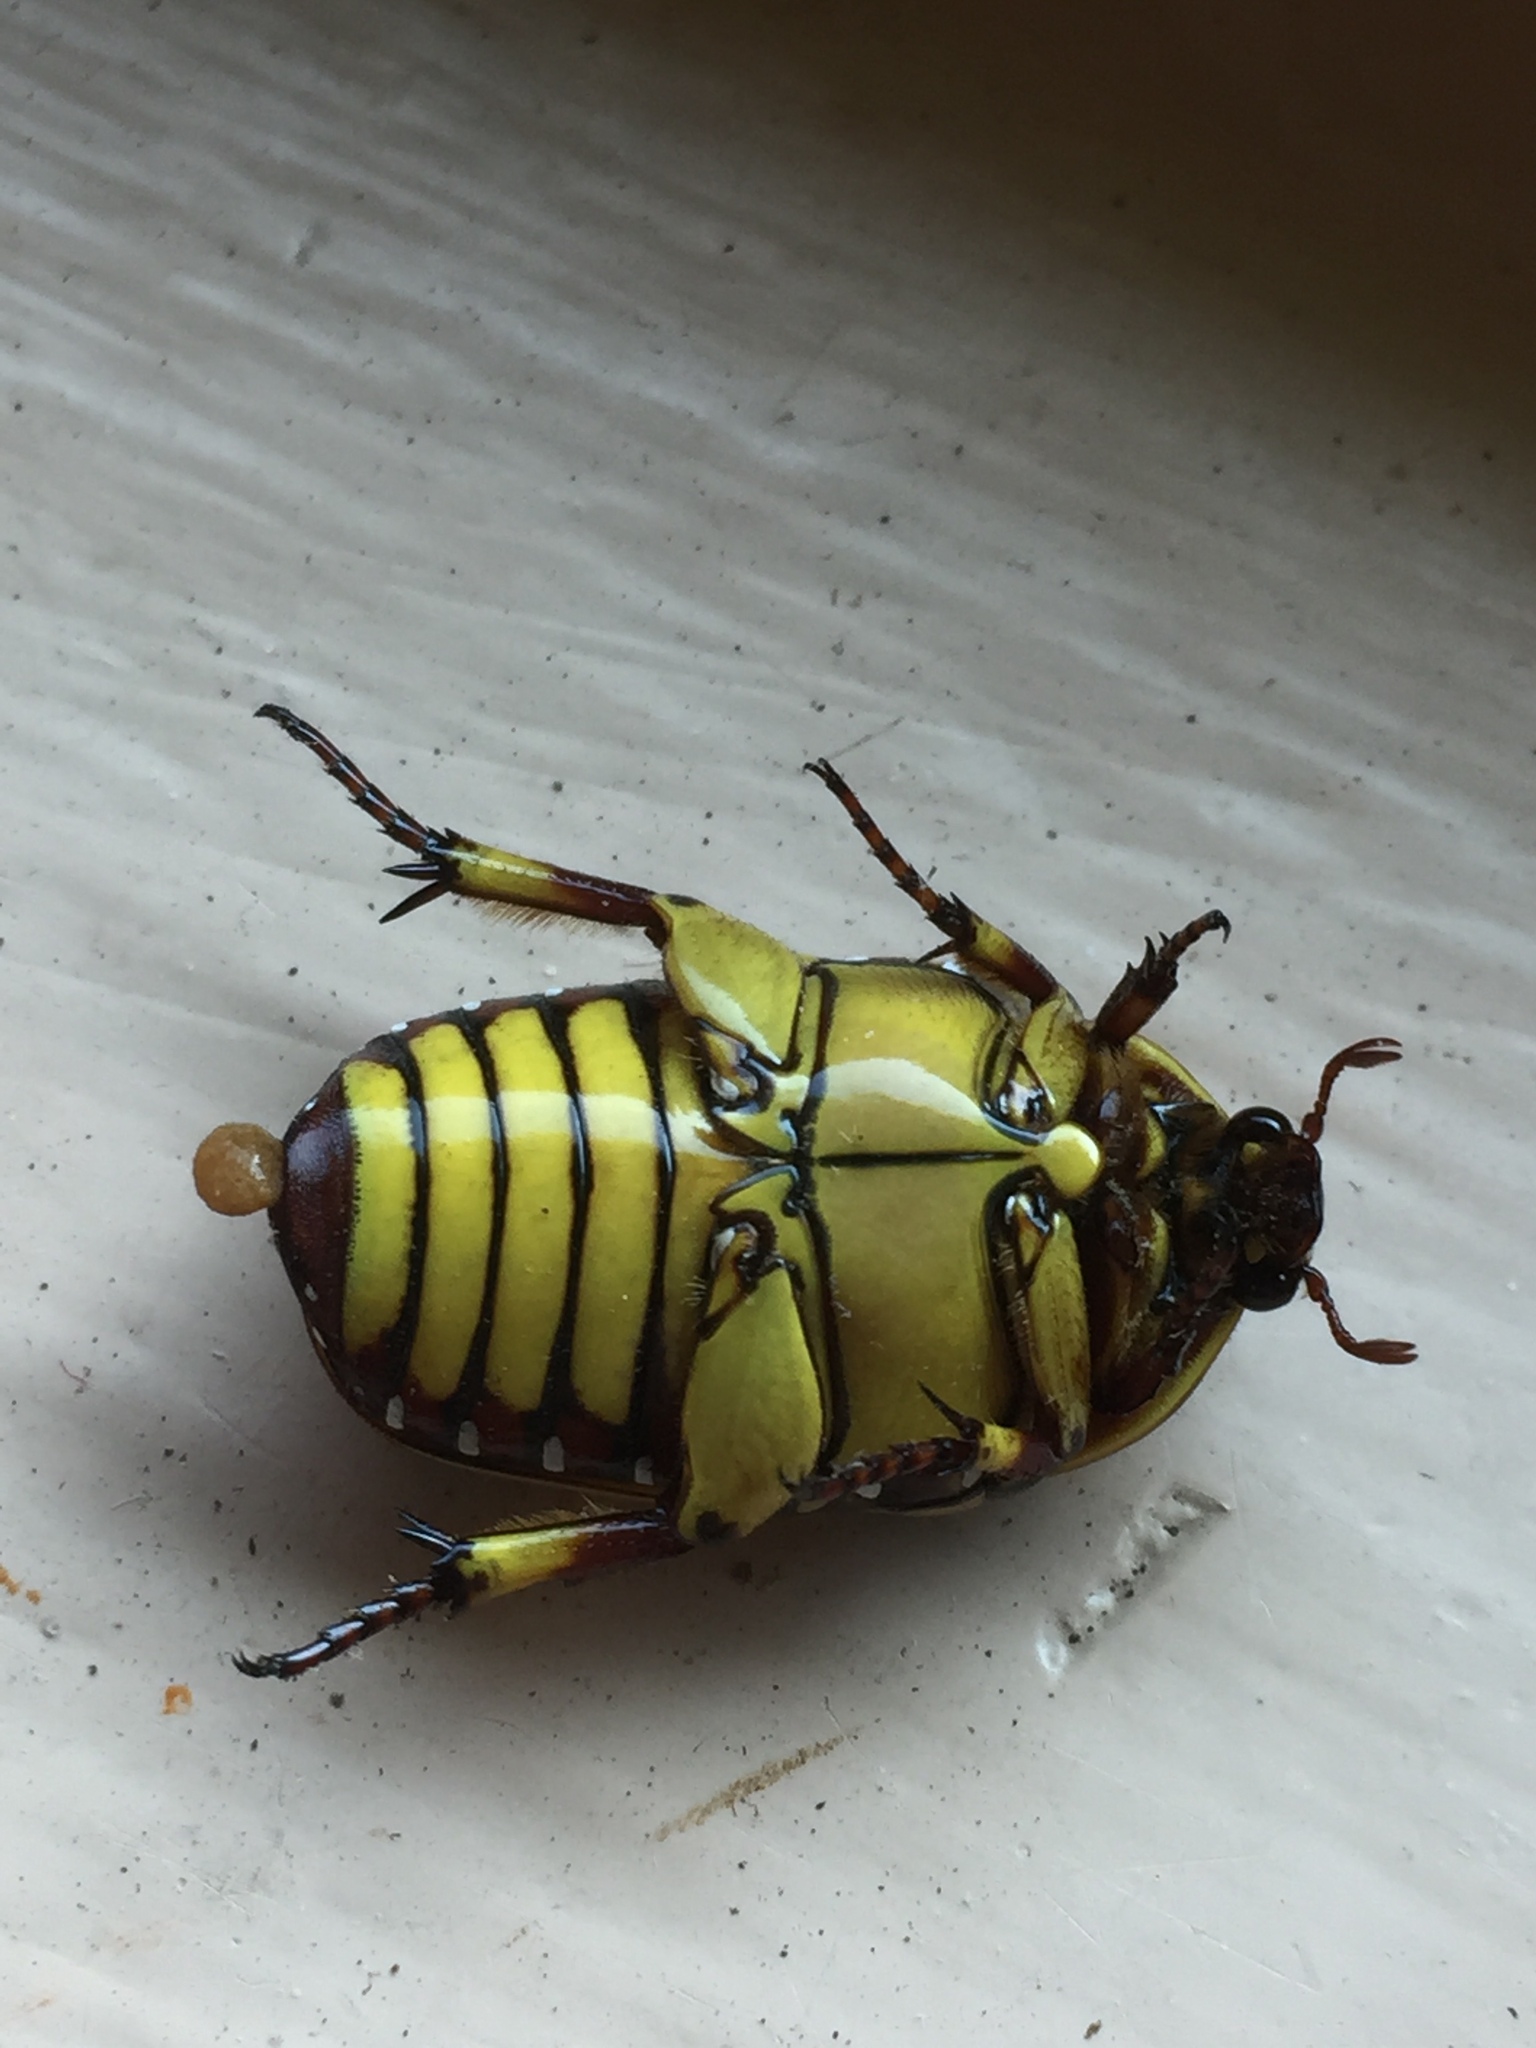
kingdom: Animalia
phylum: Arthropoda
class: Insecta
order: Coleoptera
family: Scarabaeidae
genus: Pachnoda
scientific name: Pachnoda sinuata
